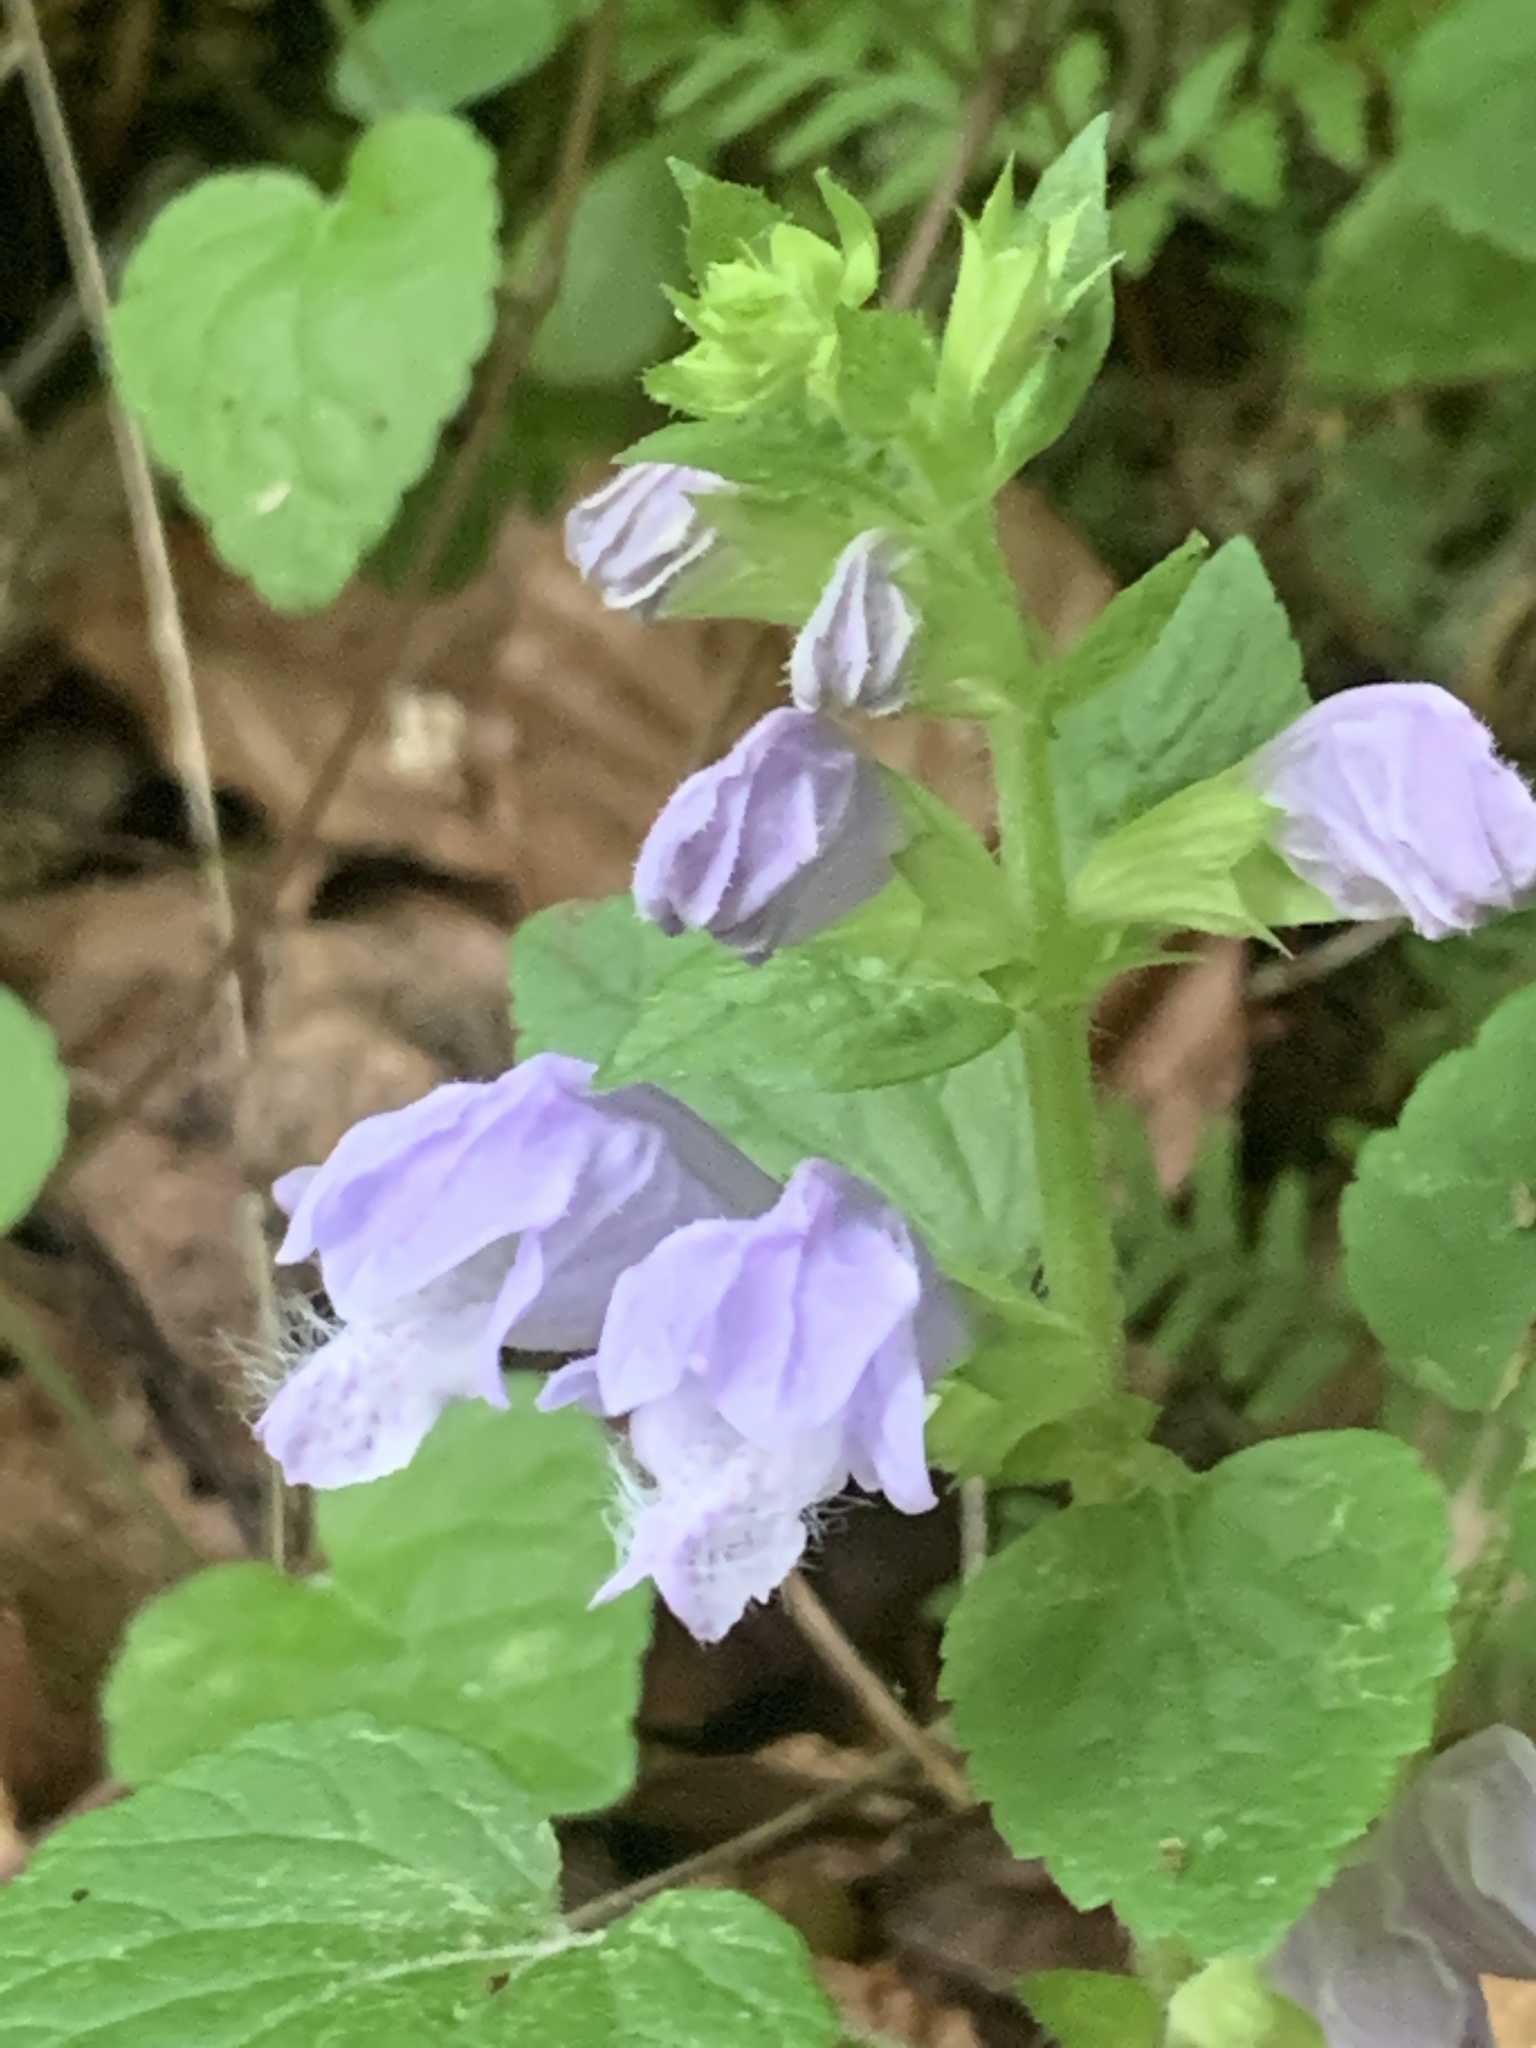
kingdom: Plantae
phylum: Tracheophyta
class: Magnoliopsida
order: Lamiales
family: Lamiaceae
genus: Meehania
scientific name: Meehania cordata
